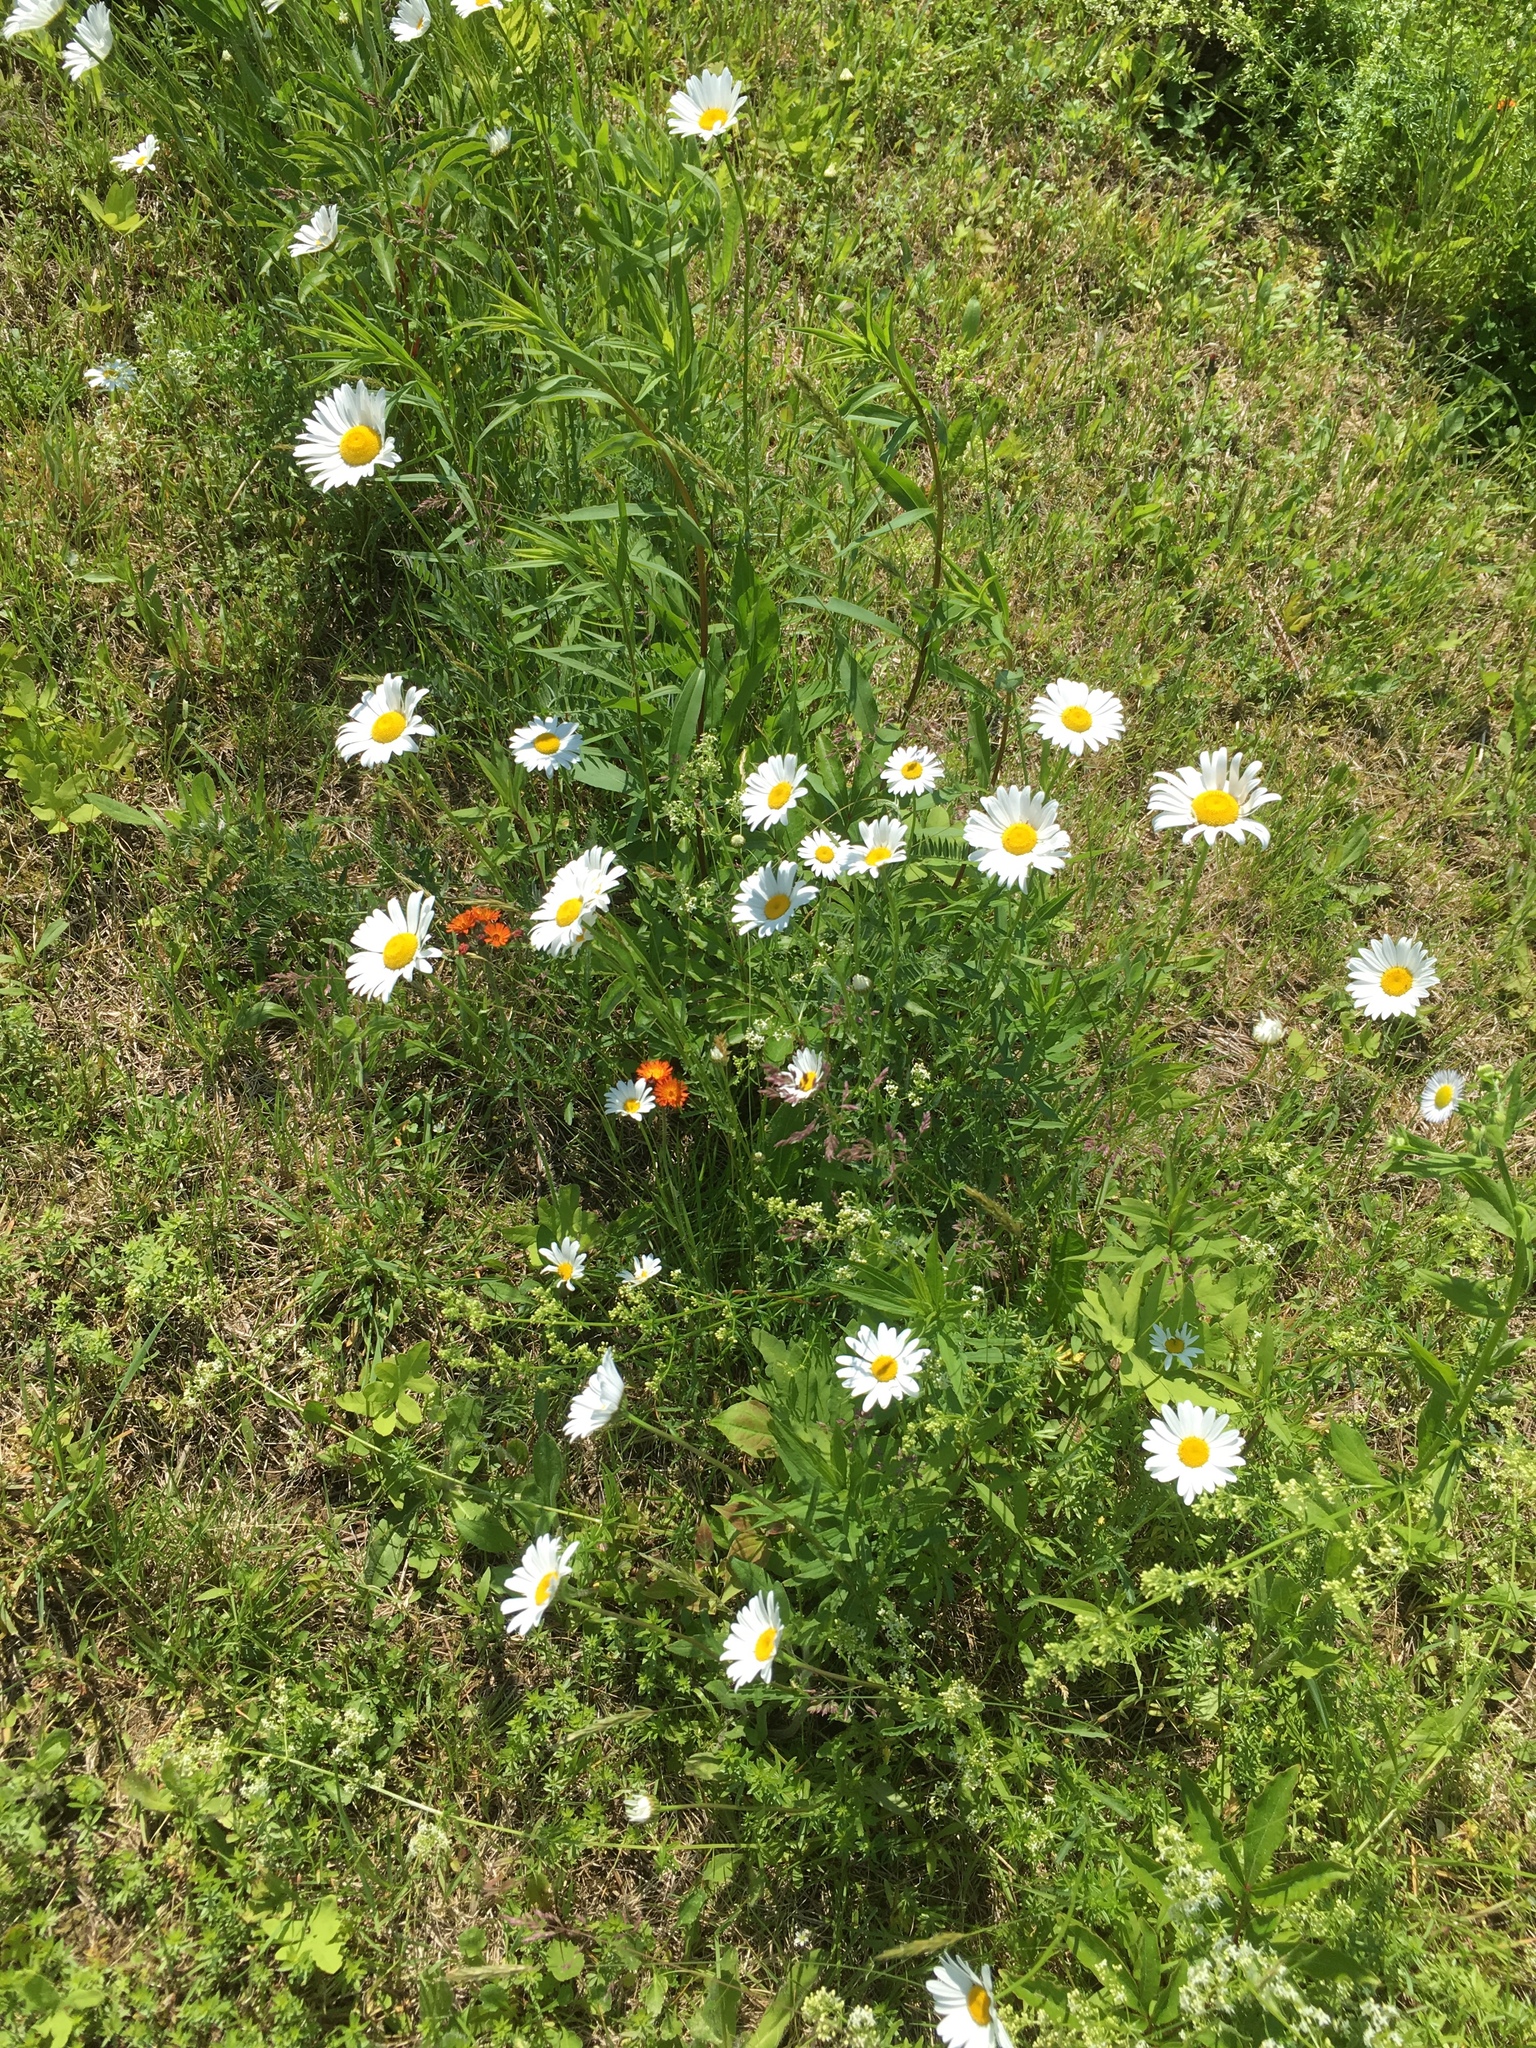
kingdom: Plantae
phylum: Tracheophyta
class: Magnoliopsida
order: Asterales
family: Asteraceae
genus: Leucanthemum
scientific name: Leucanthemum vulgare
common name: Oxeye daisy
